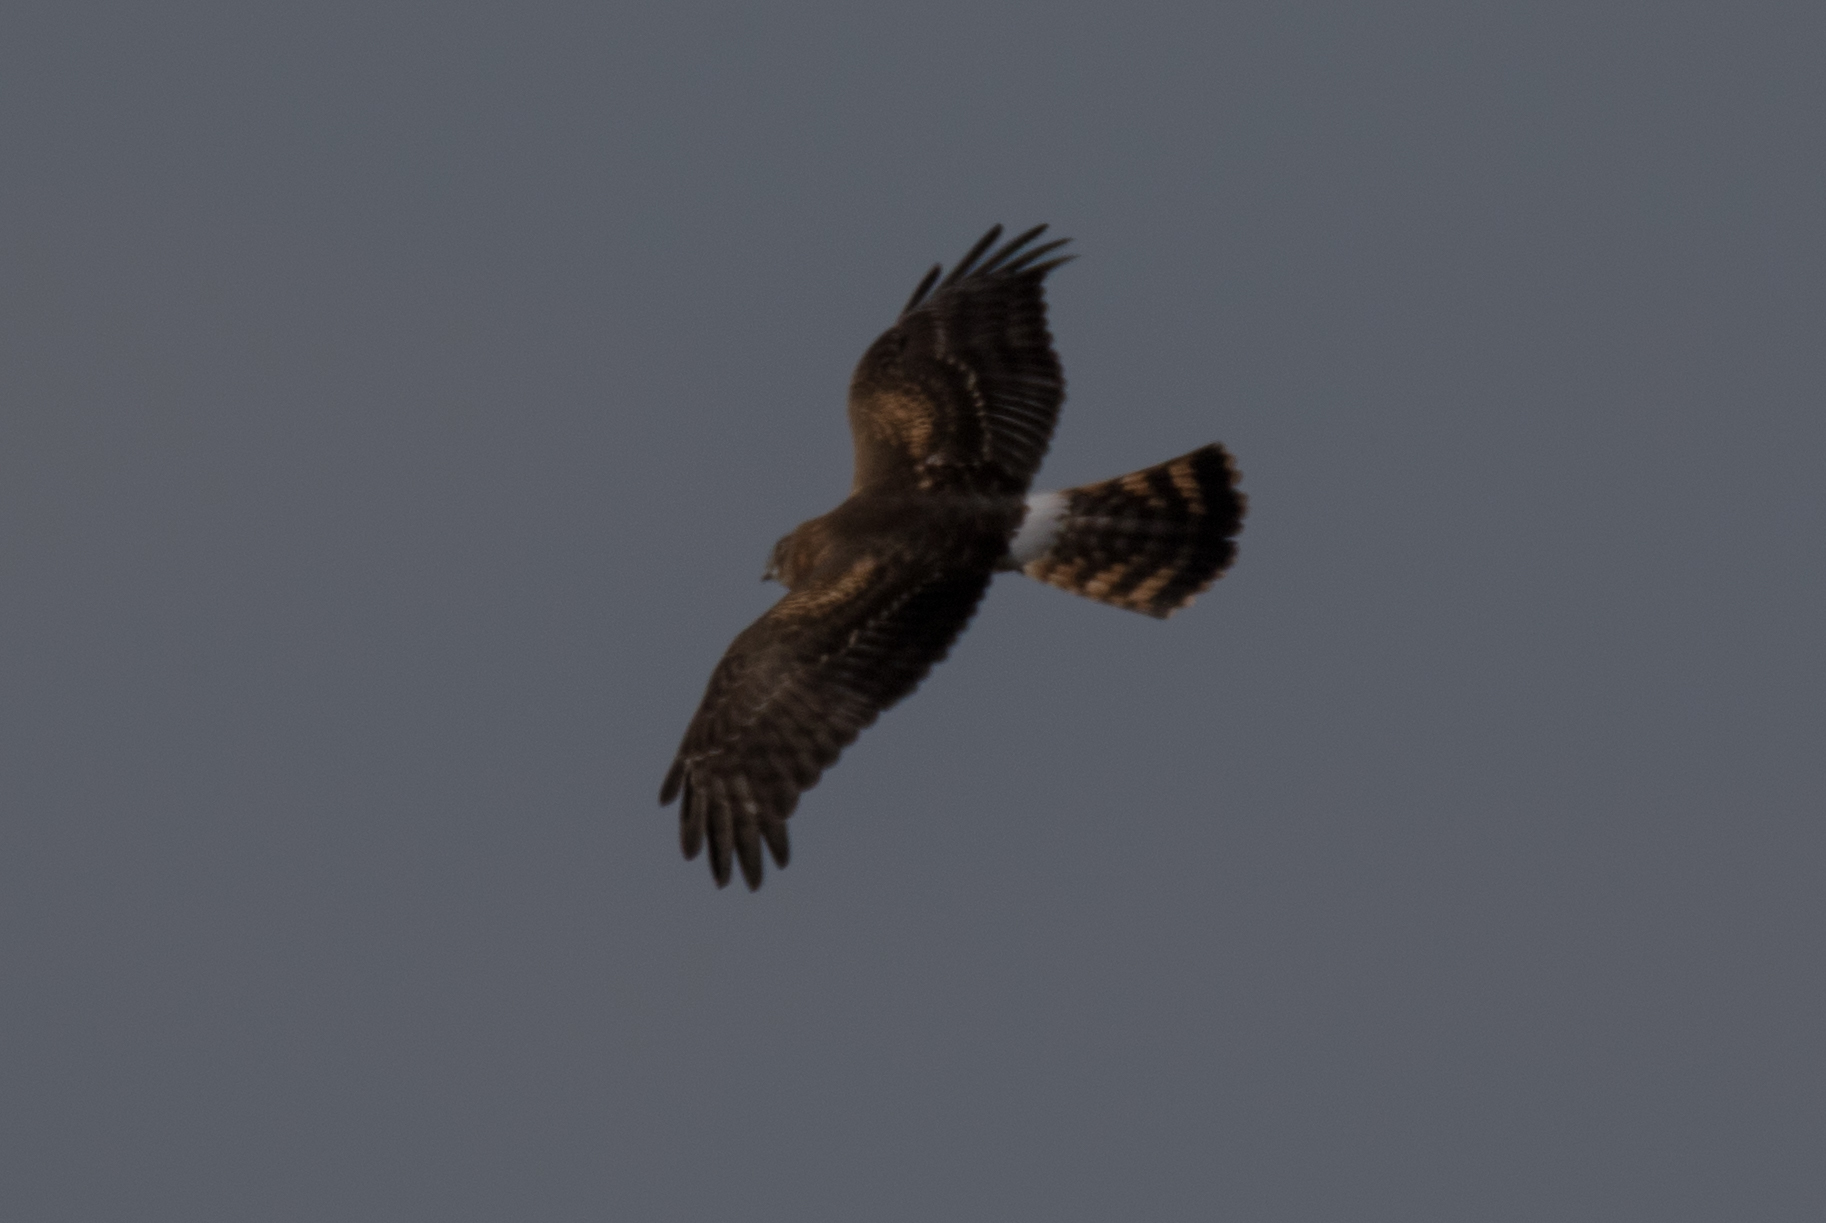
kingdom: Animalia
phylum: Chordata
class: Aves
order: Accipitriformes
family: Accipitridae
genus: Circus
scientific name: Circus cyaneus
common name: Hen harrier
